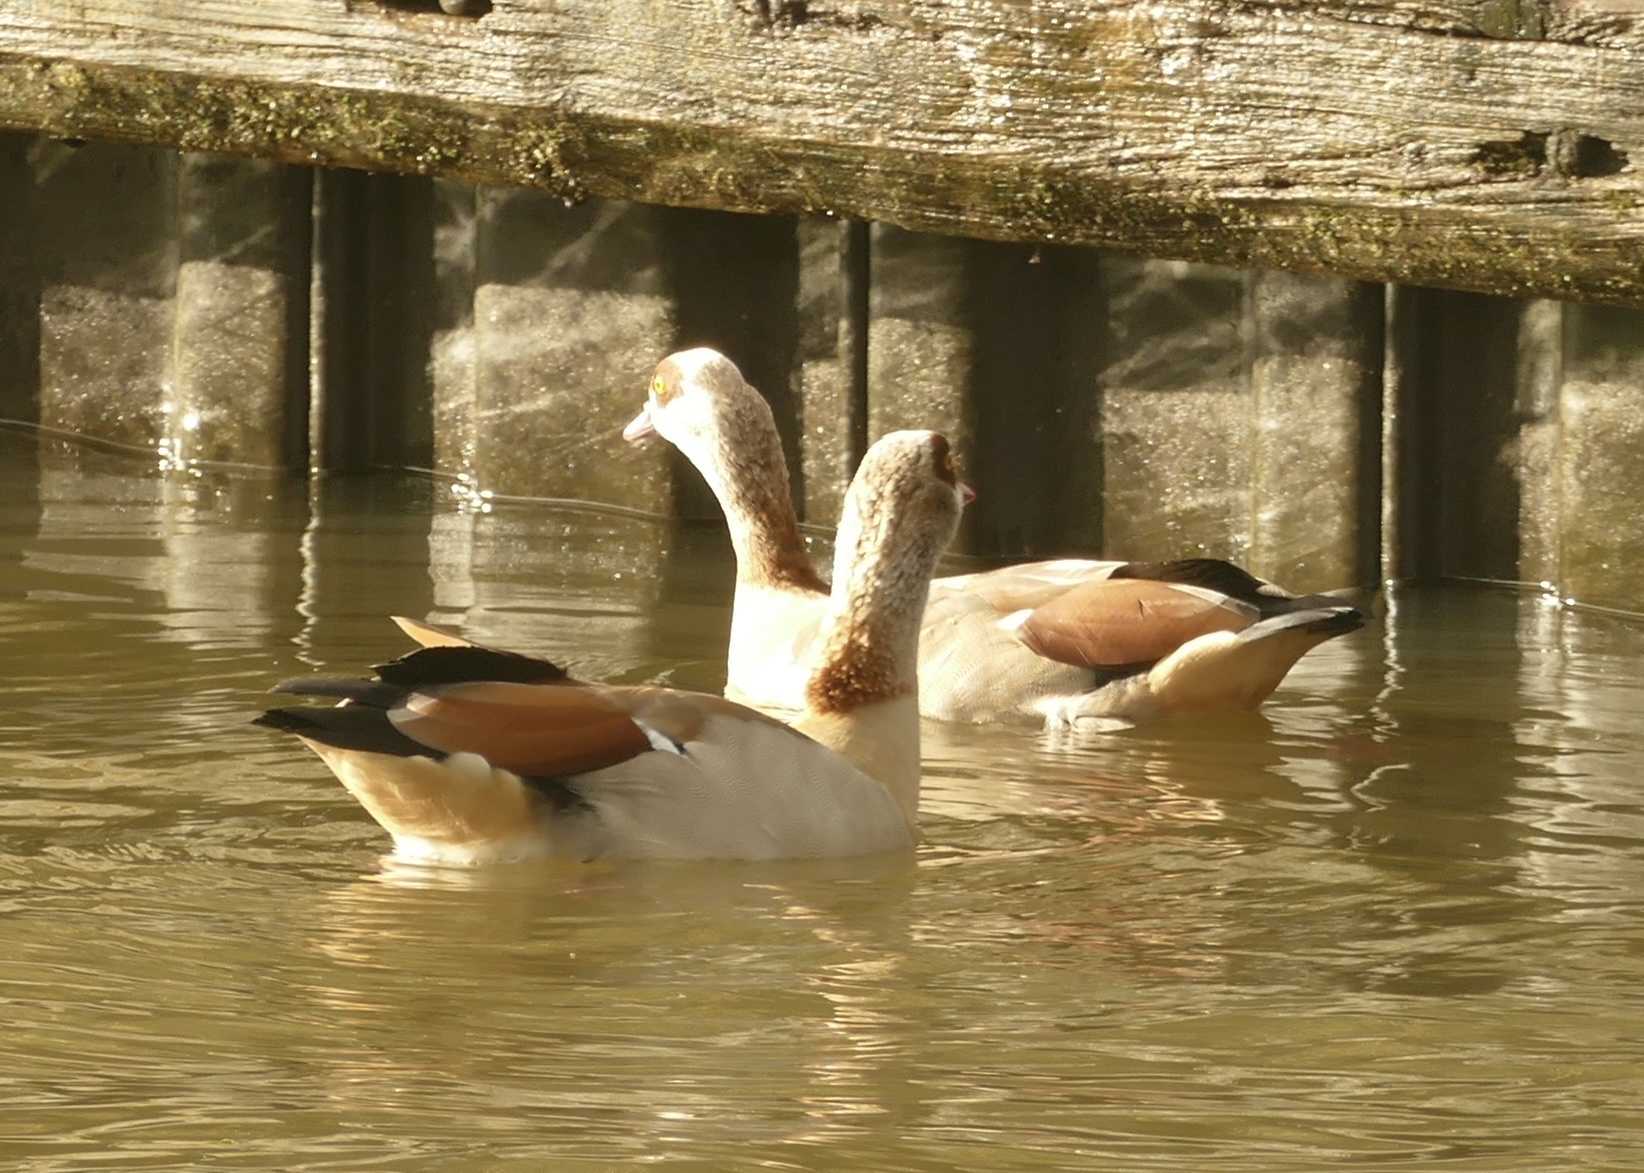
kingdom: Animalia
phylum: Chordata
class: Aves
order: Anseriformes
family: Anatidae
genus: Alopochen
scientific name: Alopochen aegyptiaca
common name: Egyptian goose
